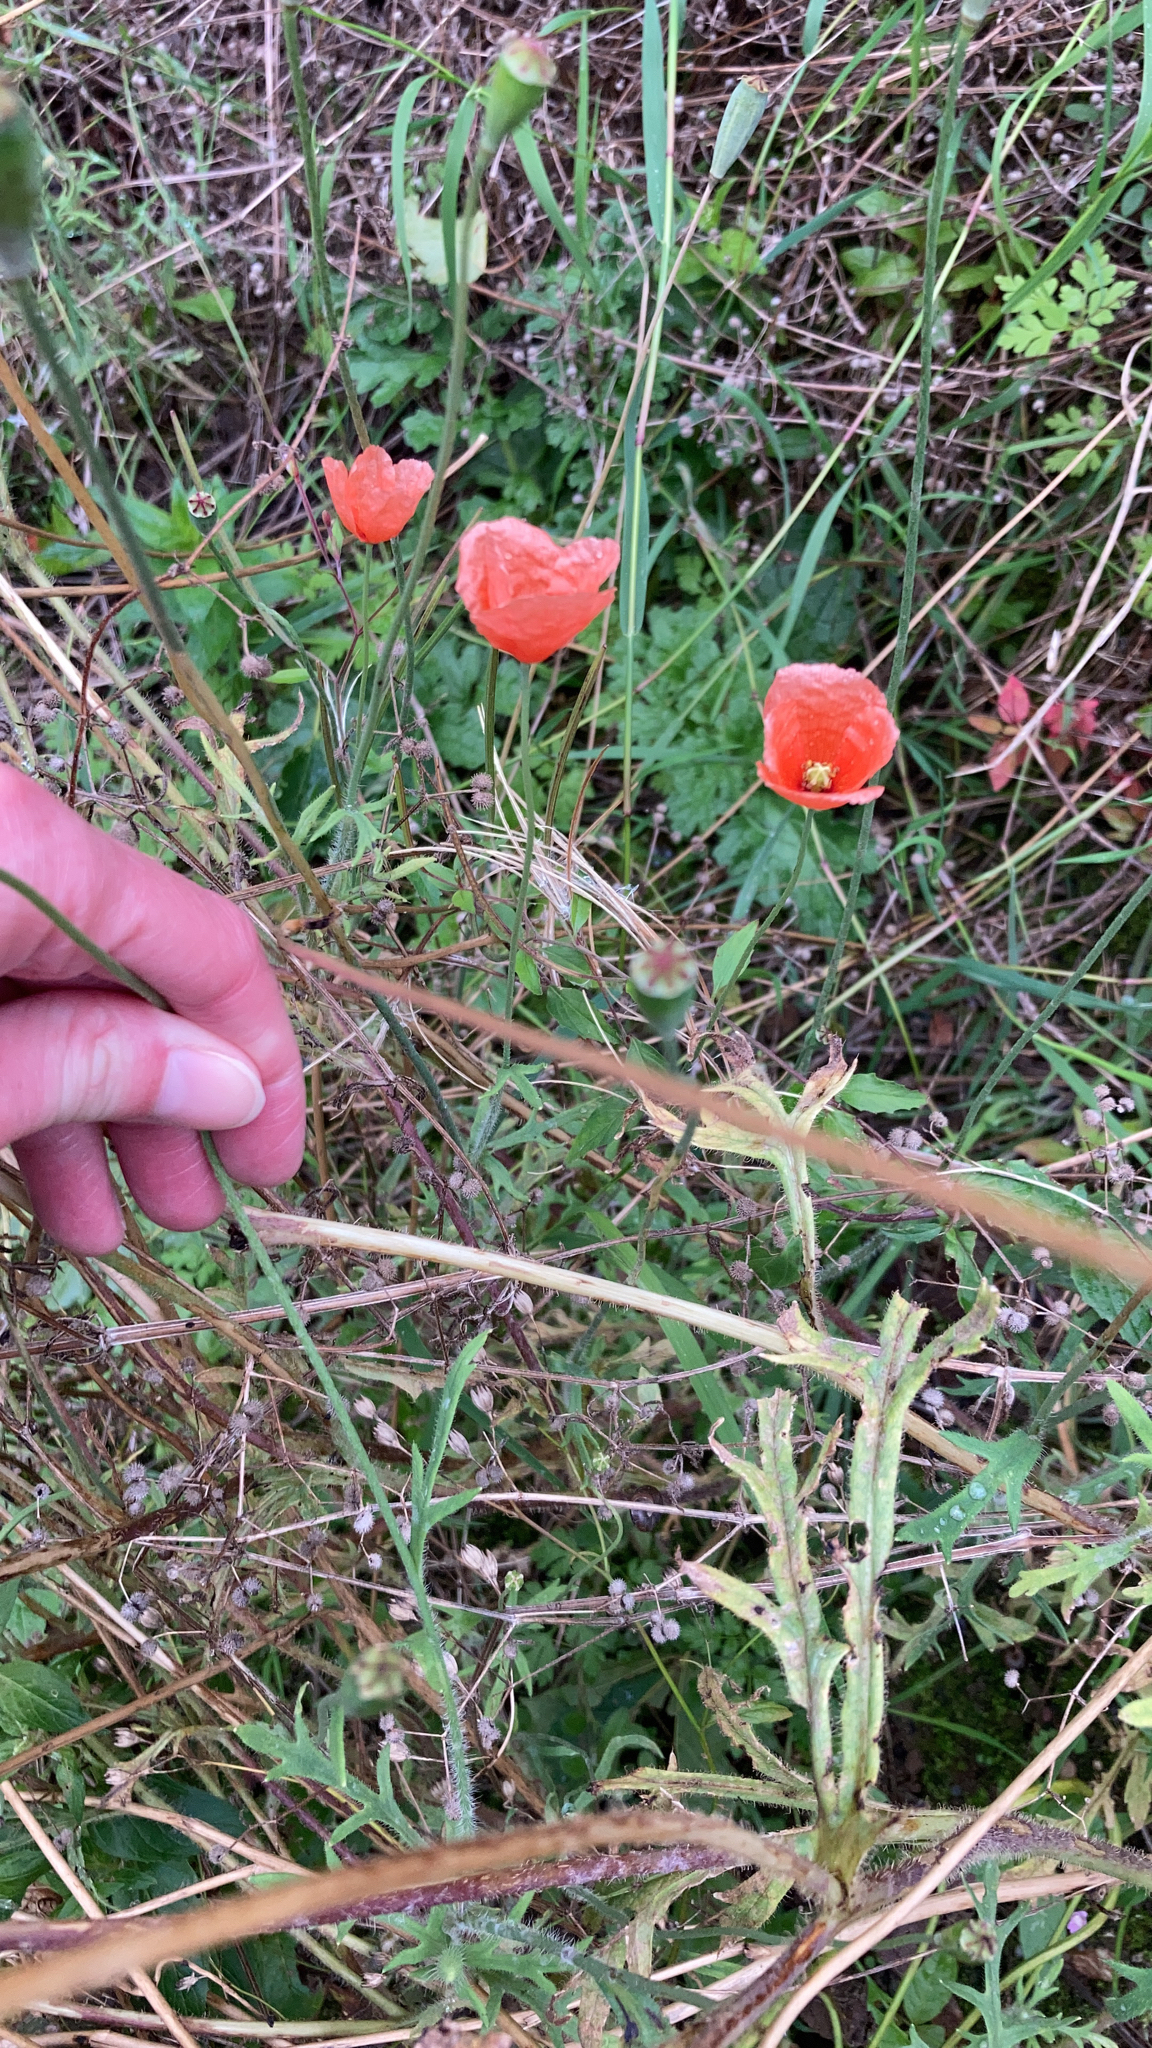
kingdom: Plantae
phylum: Tracheophyta
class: Magnoliopsida
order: Ranunculales
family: Papaveraceae
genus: Papaver
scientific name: Papaver dubium
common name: Long-headed poppy
